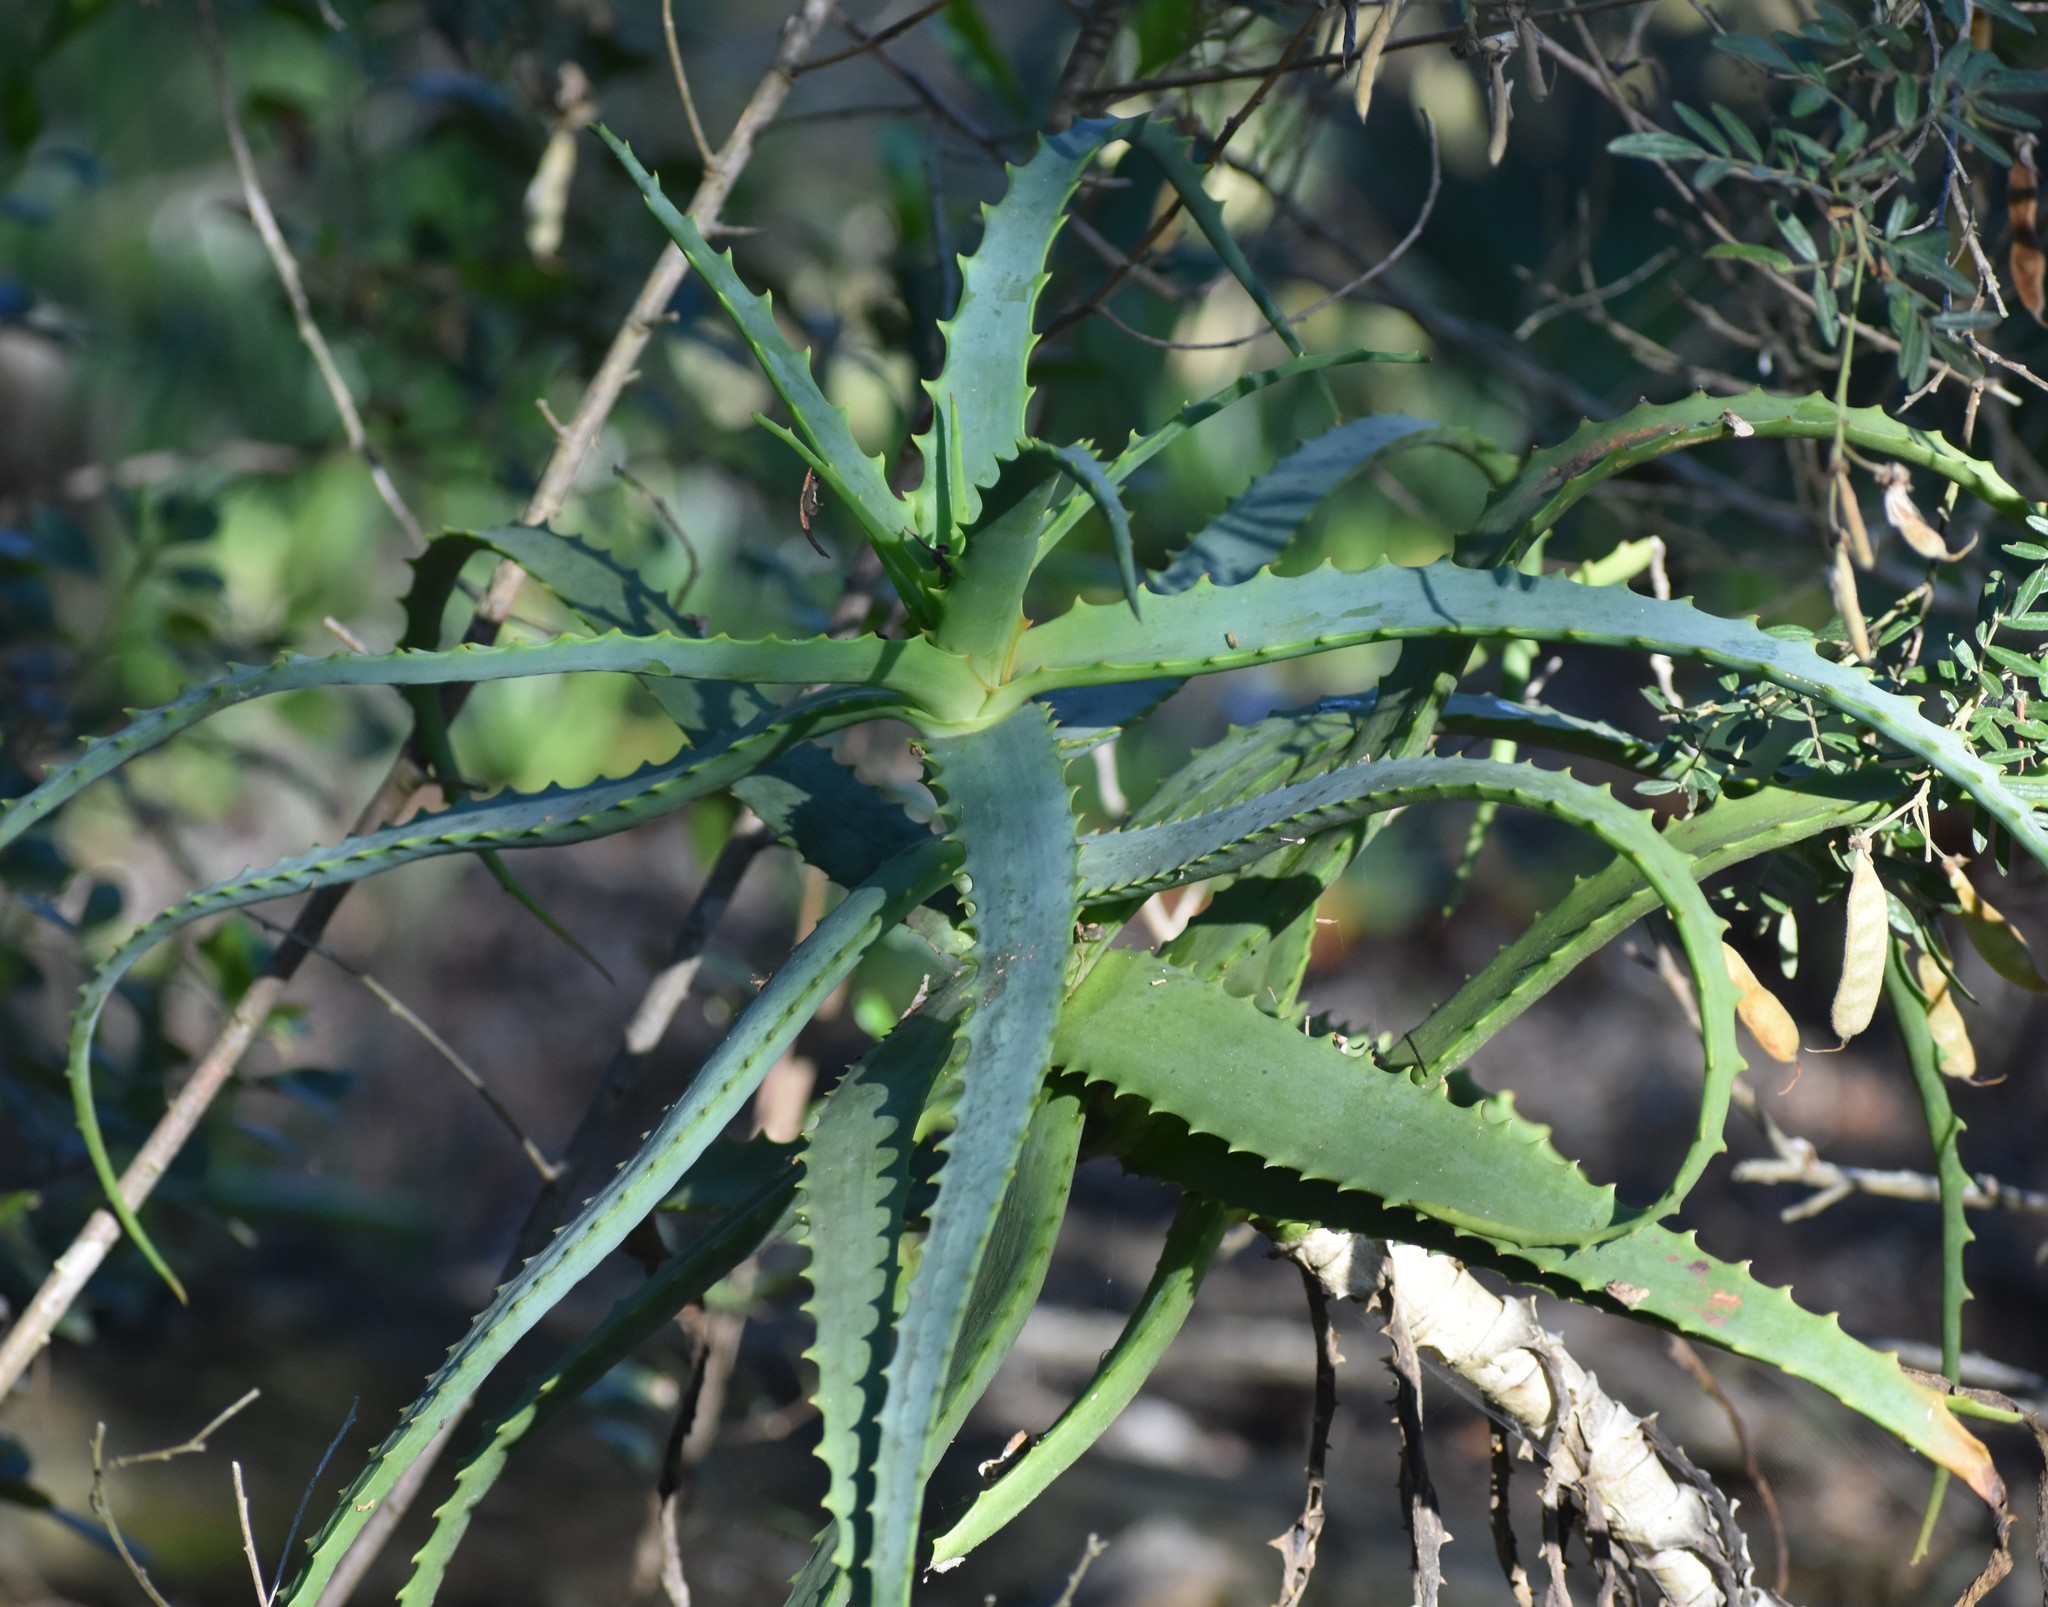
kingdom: Plantae
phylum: Tracheophyta
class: Liliopsida
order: Asparagales
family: Asphodelaceae
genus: Aloe
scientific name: Aloe arborescens
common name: Candelabra aloe
